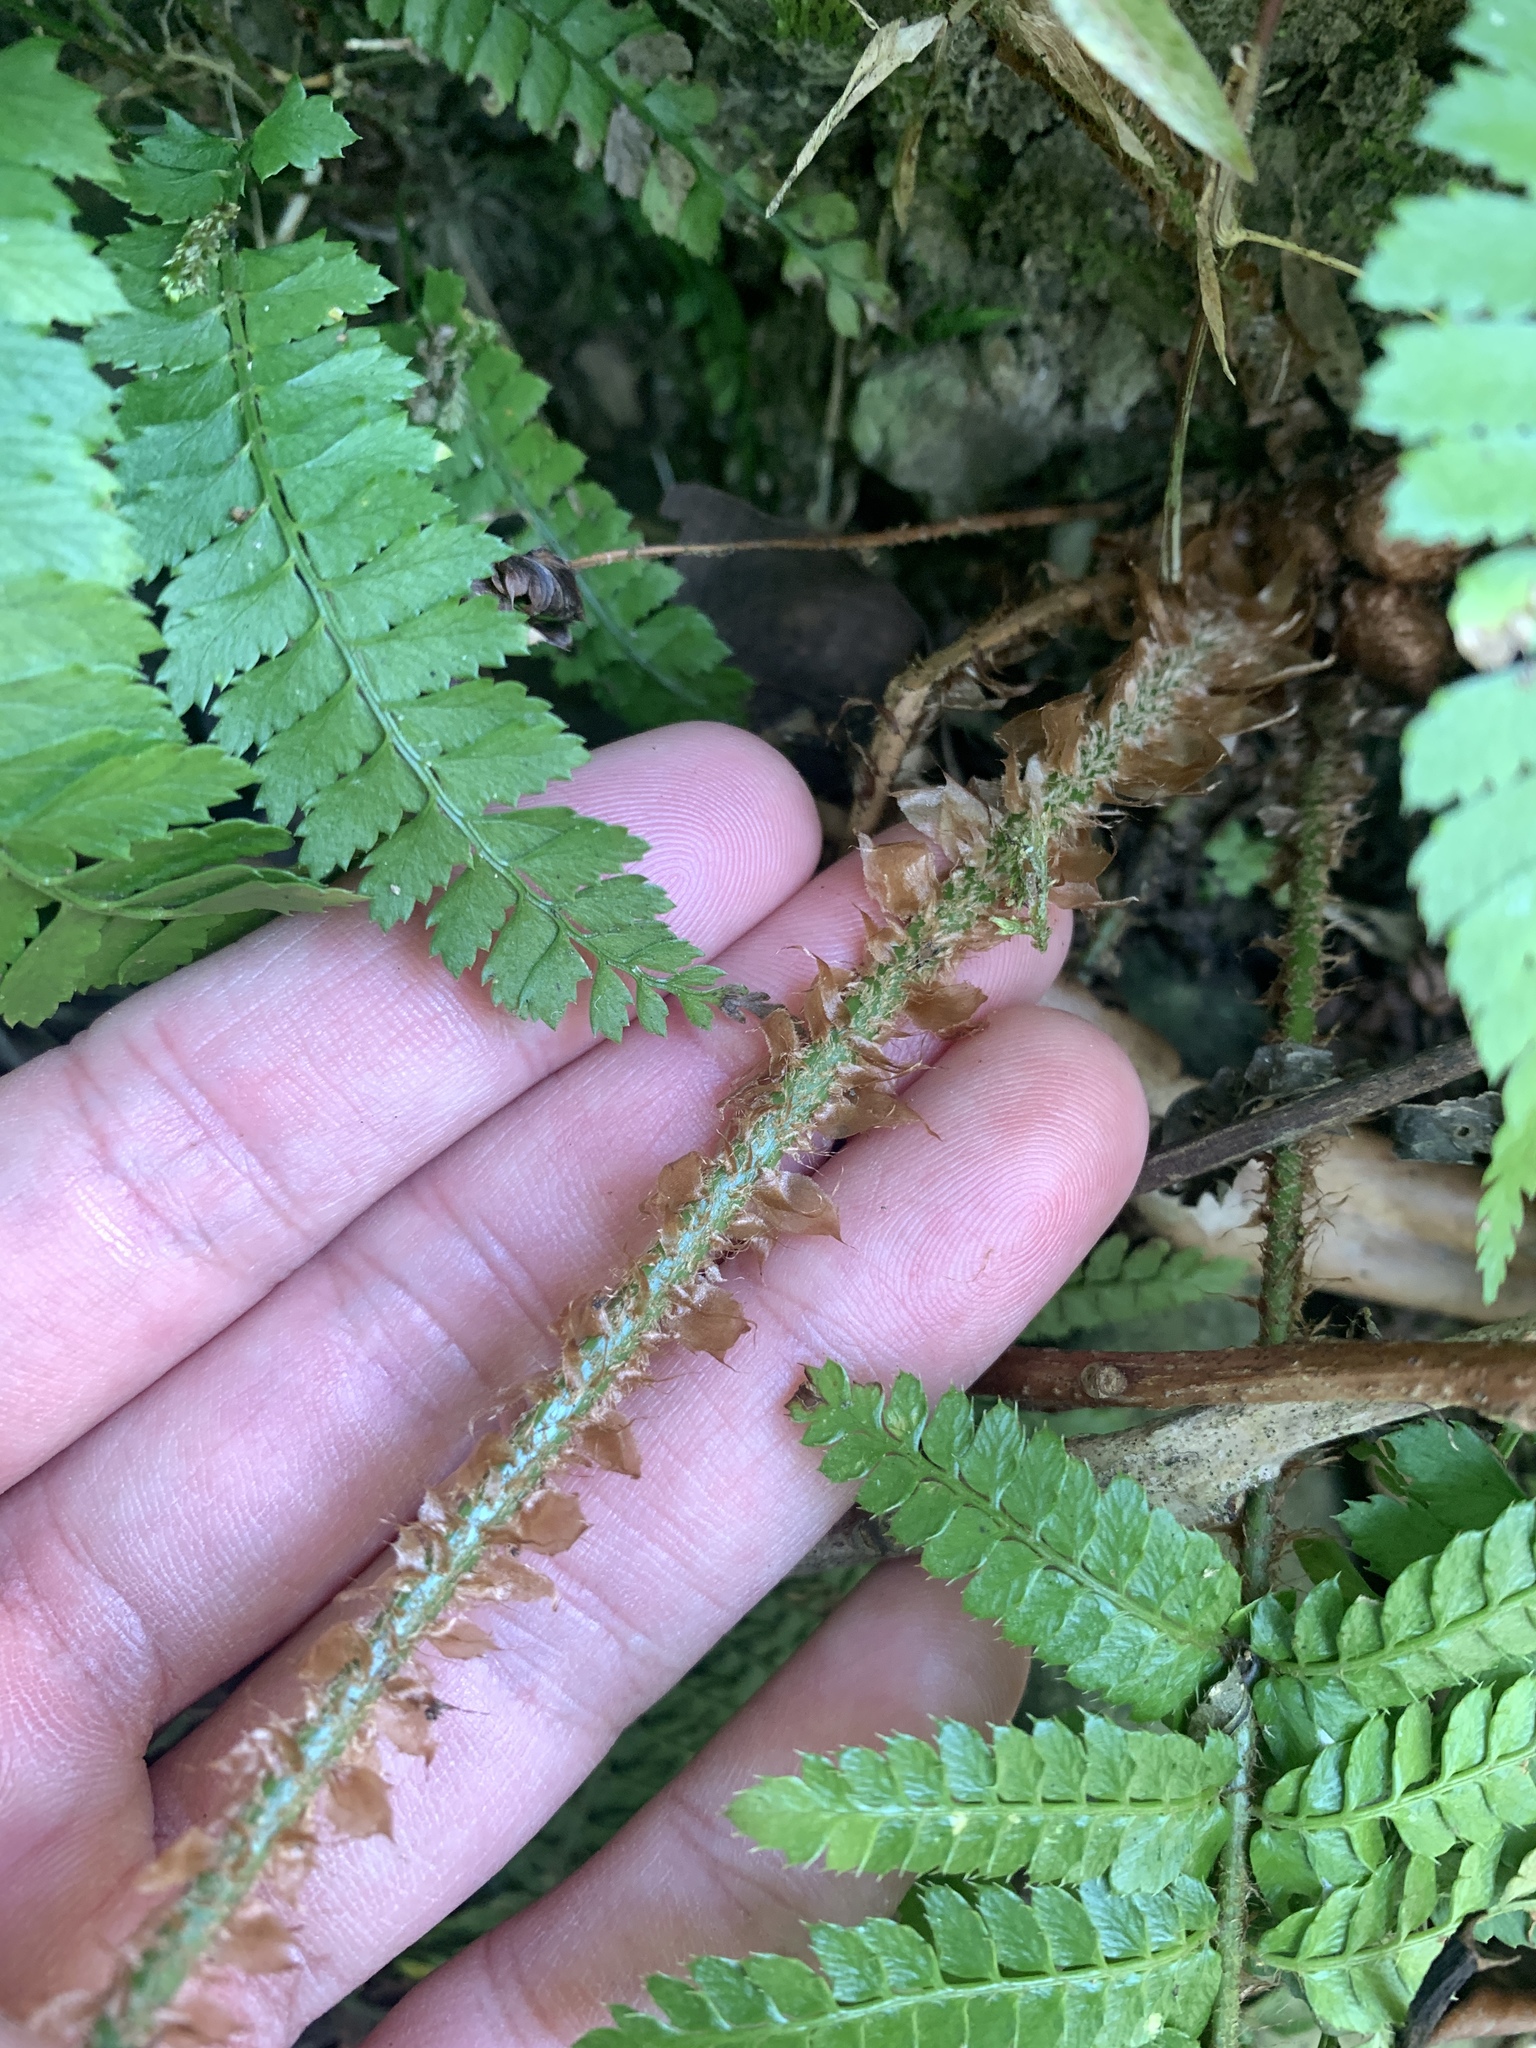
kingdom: Plantae
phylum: Tracheophyta
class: Polypodiopsida
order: Polypodiales
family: Dryopteridaceae
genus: Polystichum
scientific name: Polystichum parvipinnulum
